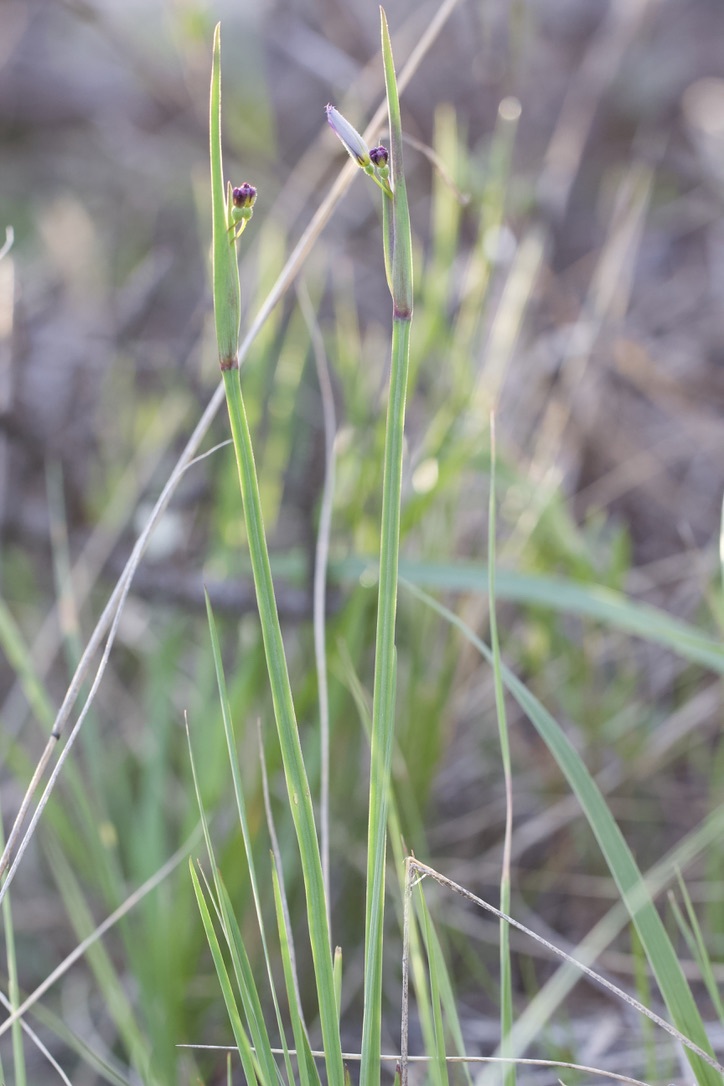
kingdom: Plantae
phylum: Tracheophyta
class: Liliopsida
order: Asparagales
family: Iridaceae
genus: Sisyrinchium
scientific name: Sisyrinchium montanum
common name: American blue-eyed-grass
